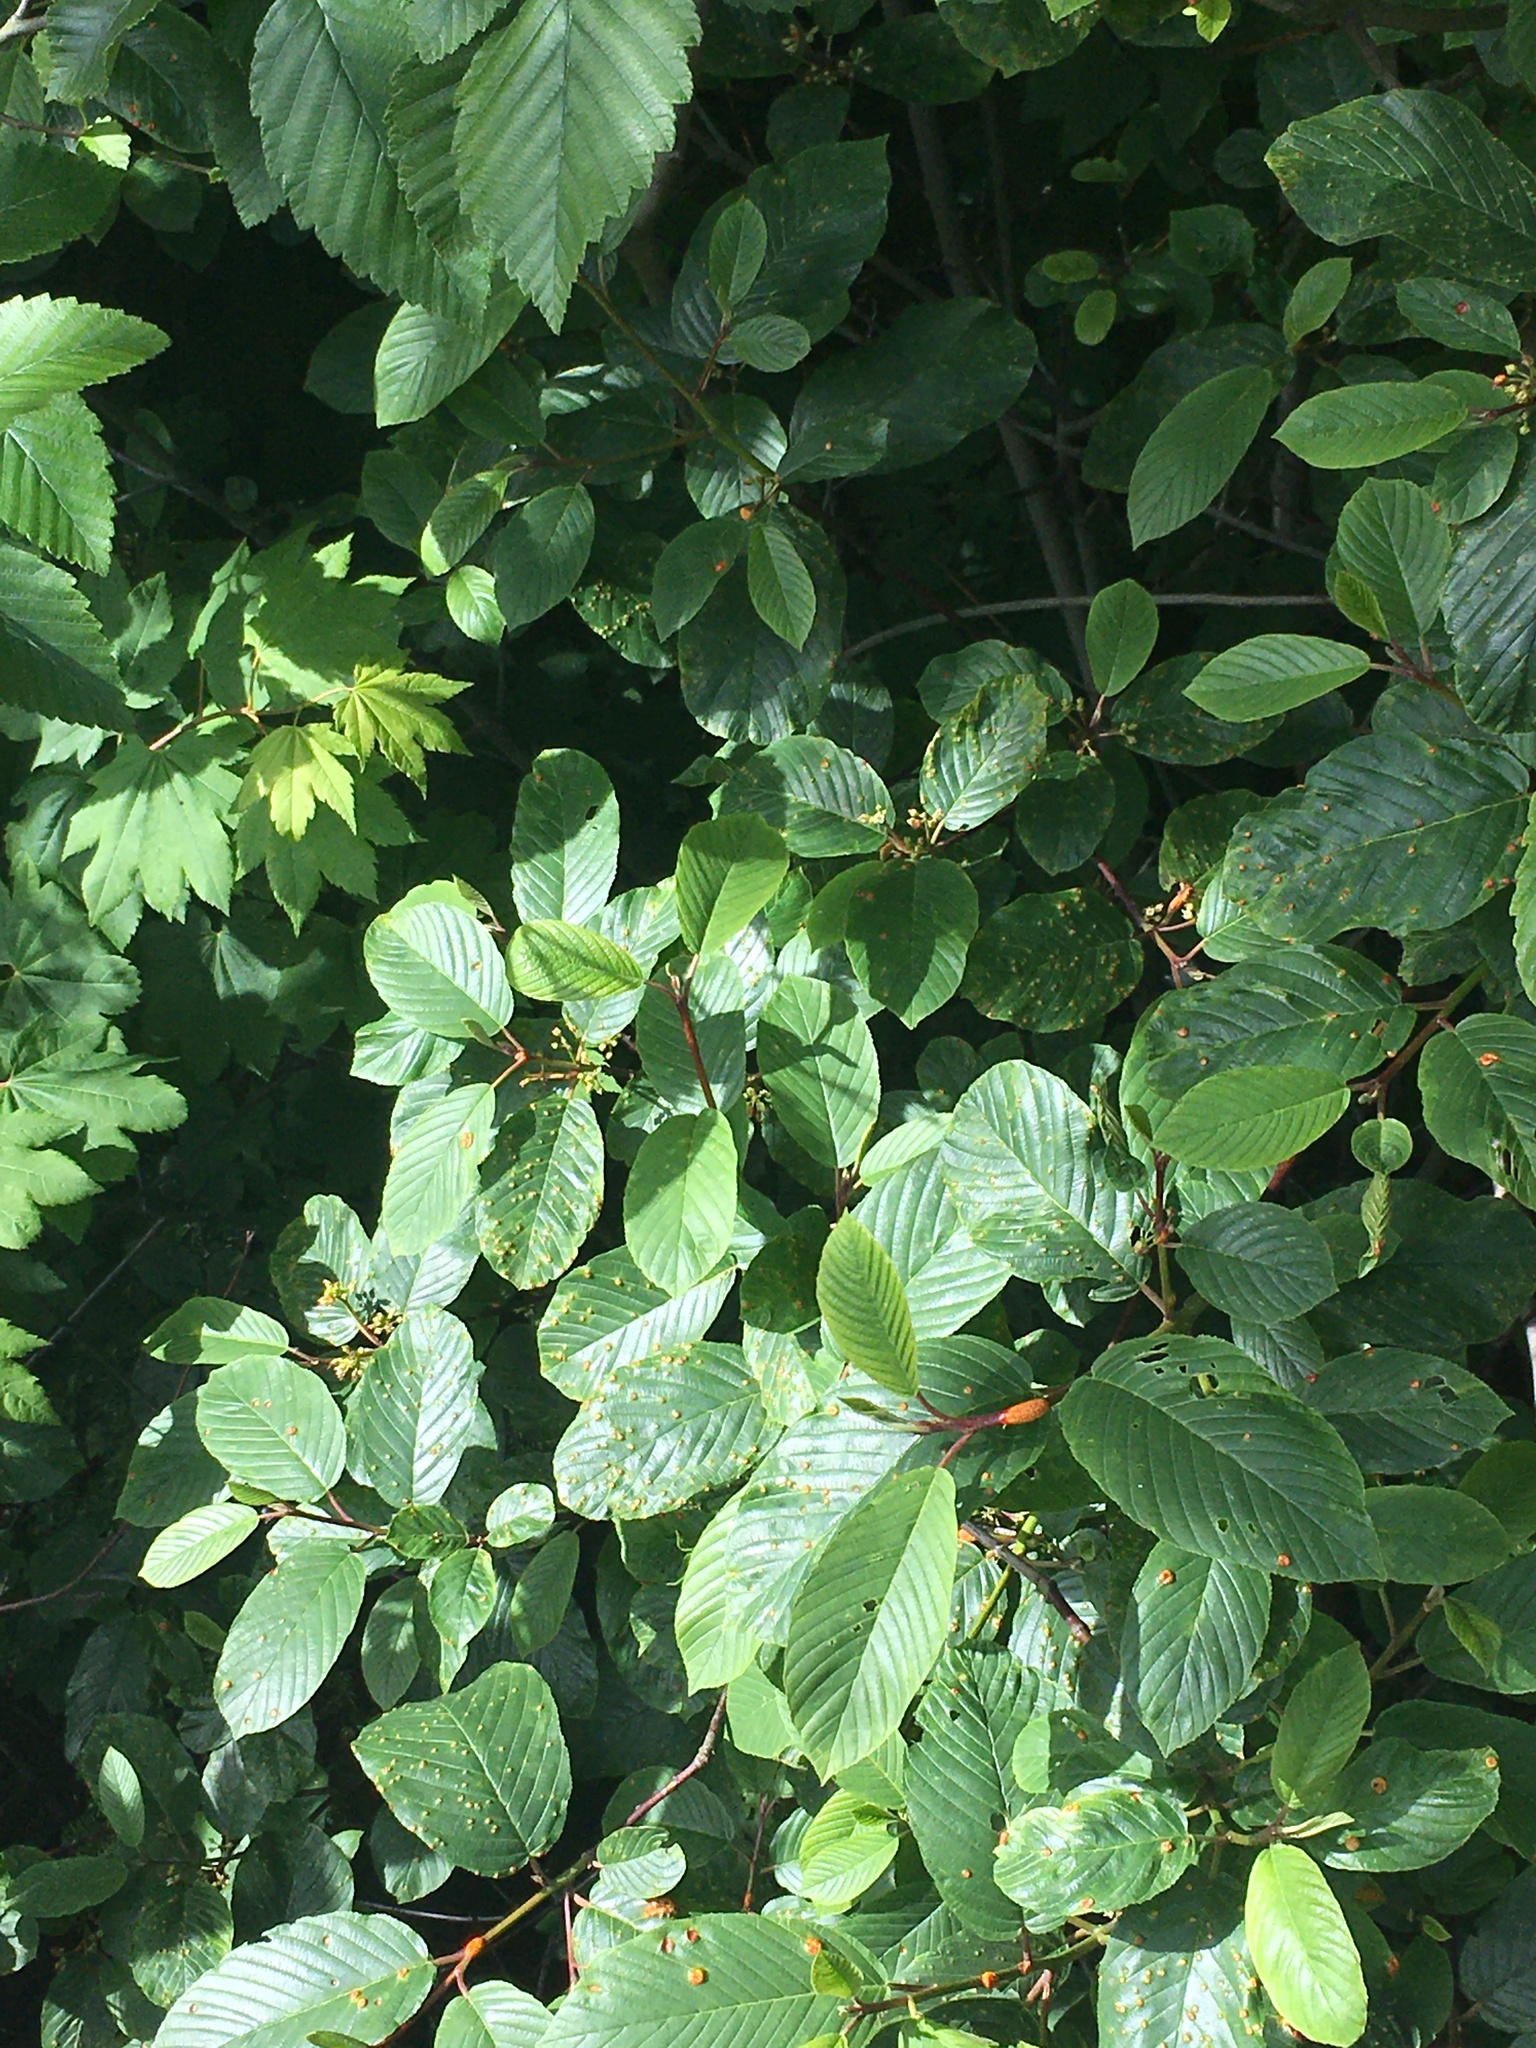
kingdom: Plantae
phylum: Tracheophyta
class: Magnoliopsida
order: Rosales
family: Rhamnaceae
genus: Frangula
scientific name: Frangula purshiana
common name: Cascara buckthorn
